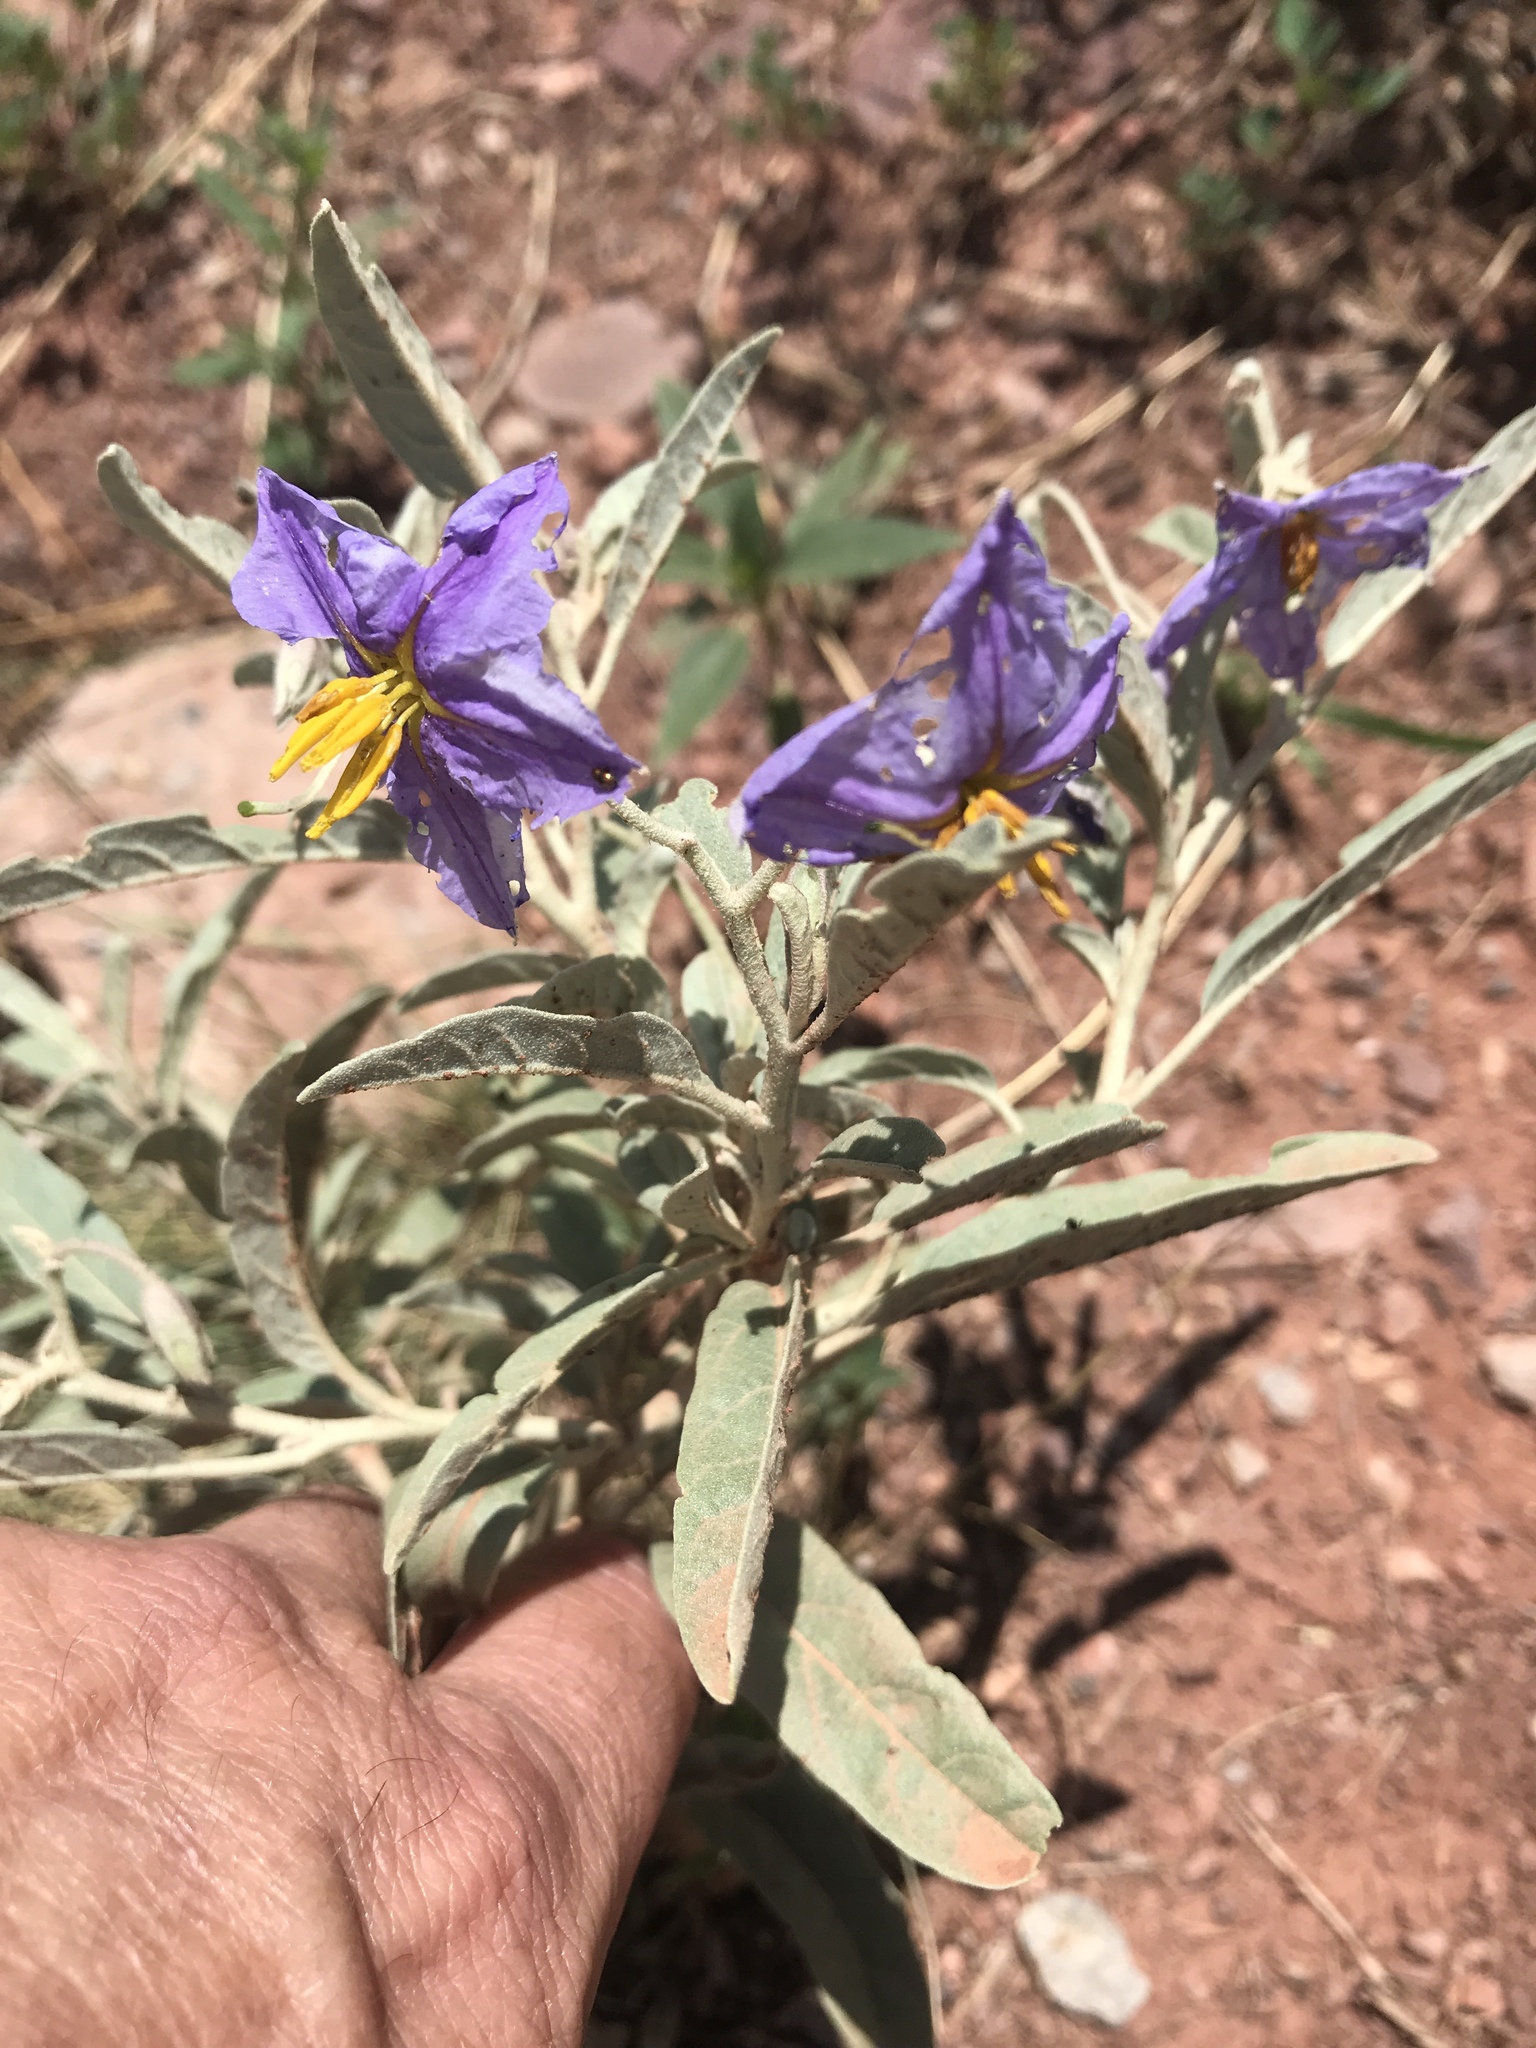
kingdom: Plantae
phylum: Tracheophyta
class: Magnoliopsida
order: Solanales
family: Solanaceae
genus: Solanum
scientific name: Solanum elaeagnifolium
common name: Silverleaf nightshade
